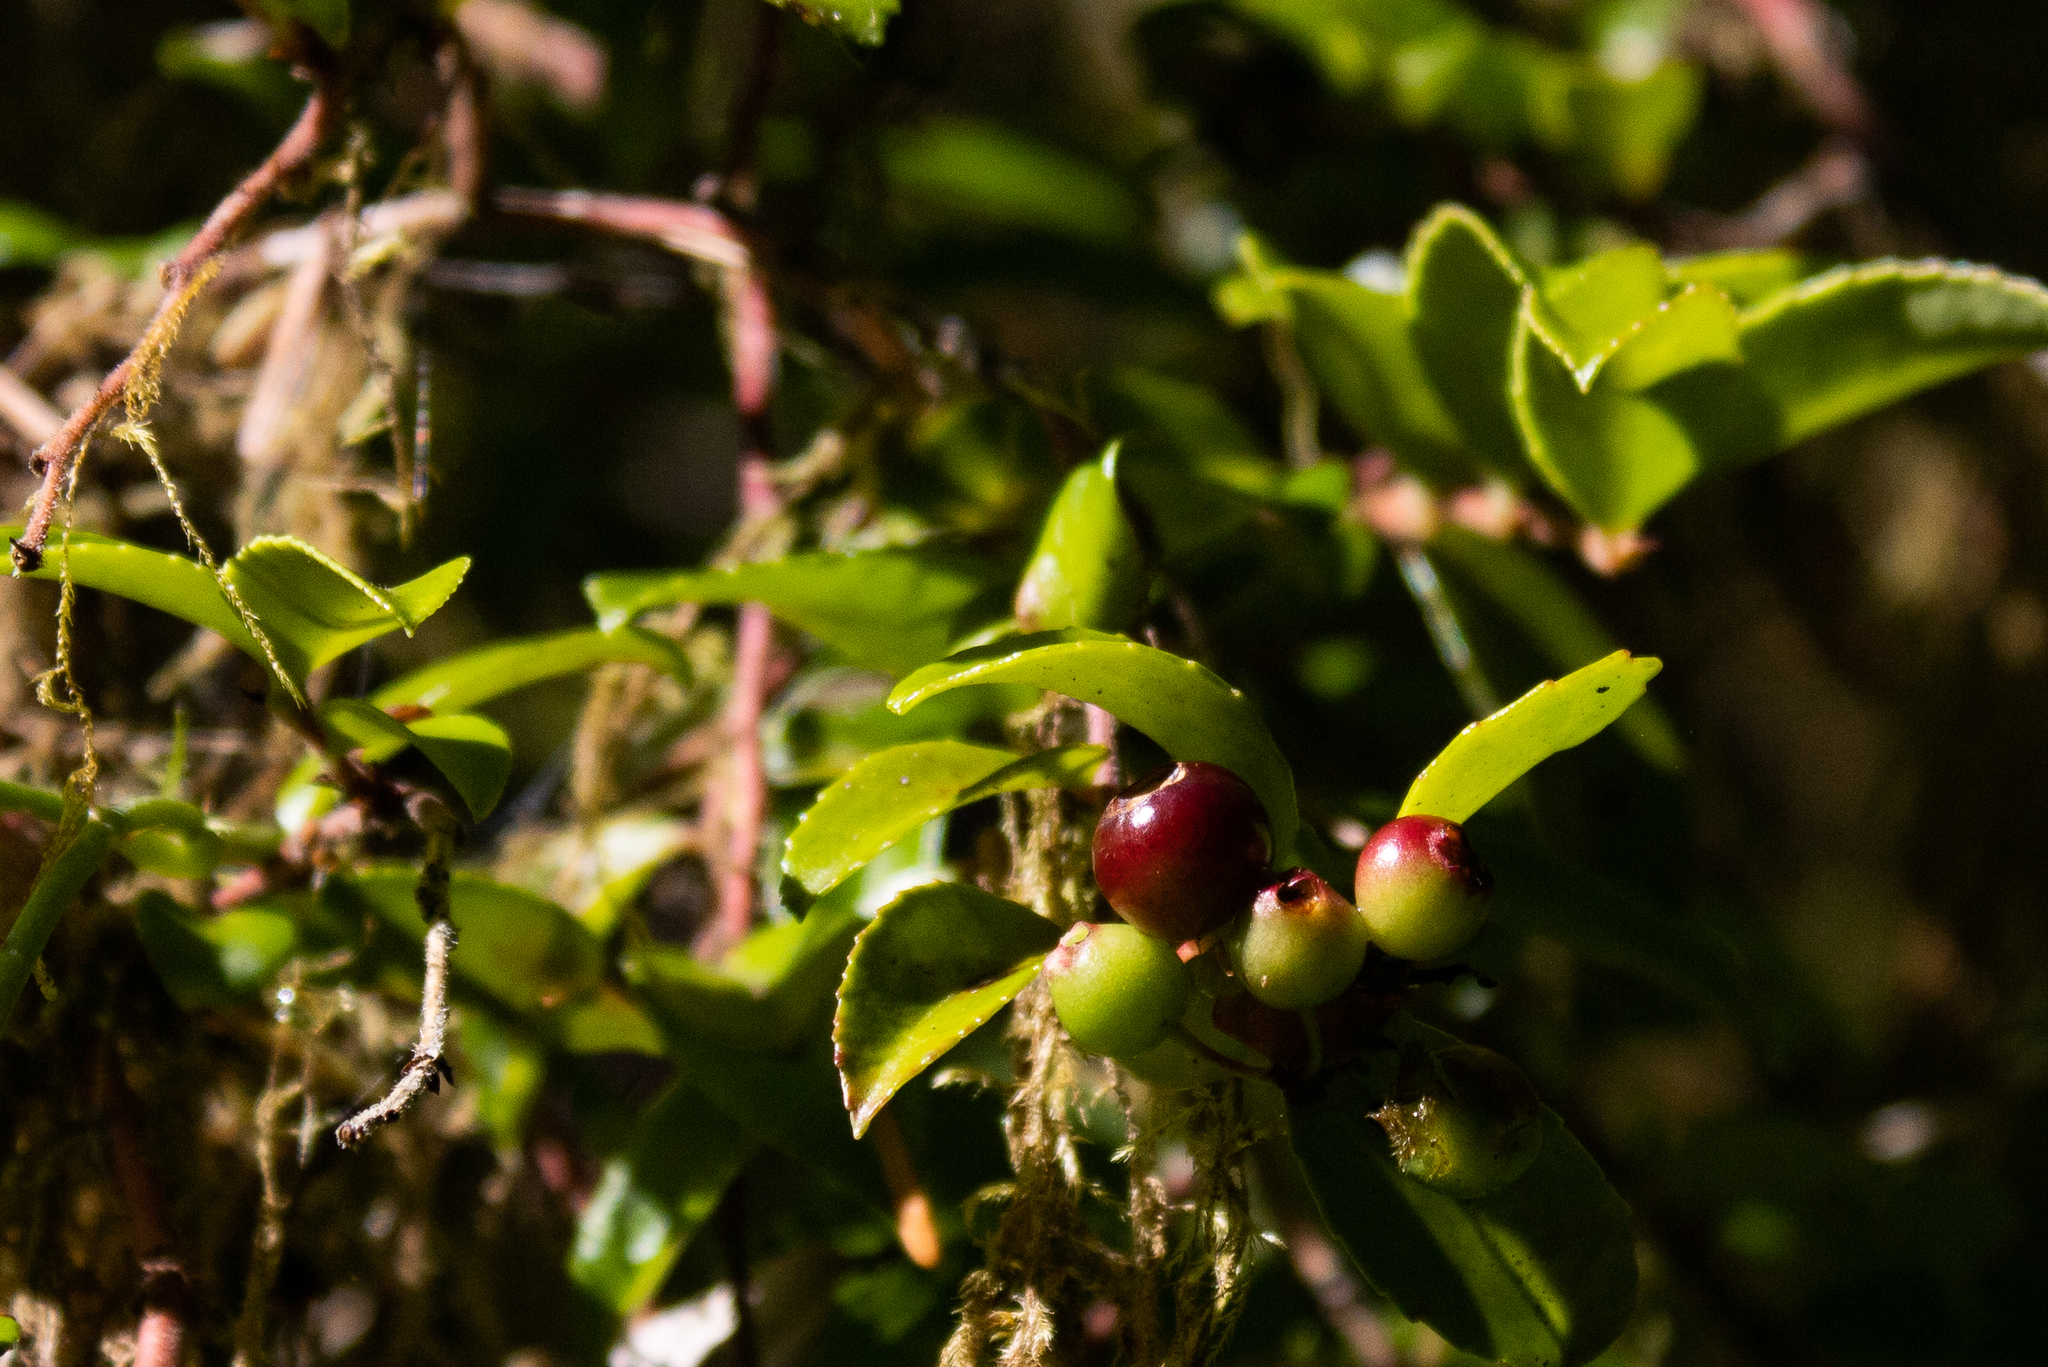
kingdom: Plantae
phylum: Tracheophyta
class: Magnoliopsida
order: Ericales
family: Ericaceae
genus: Vaccinium
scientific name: Vaccinium ovatum
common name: California-huckleberry
